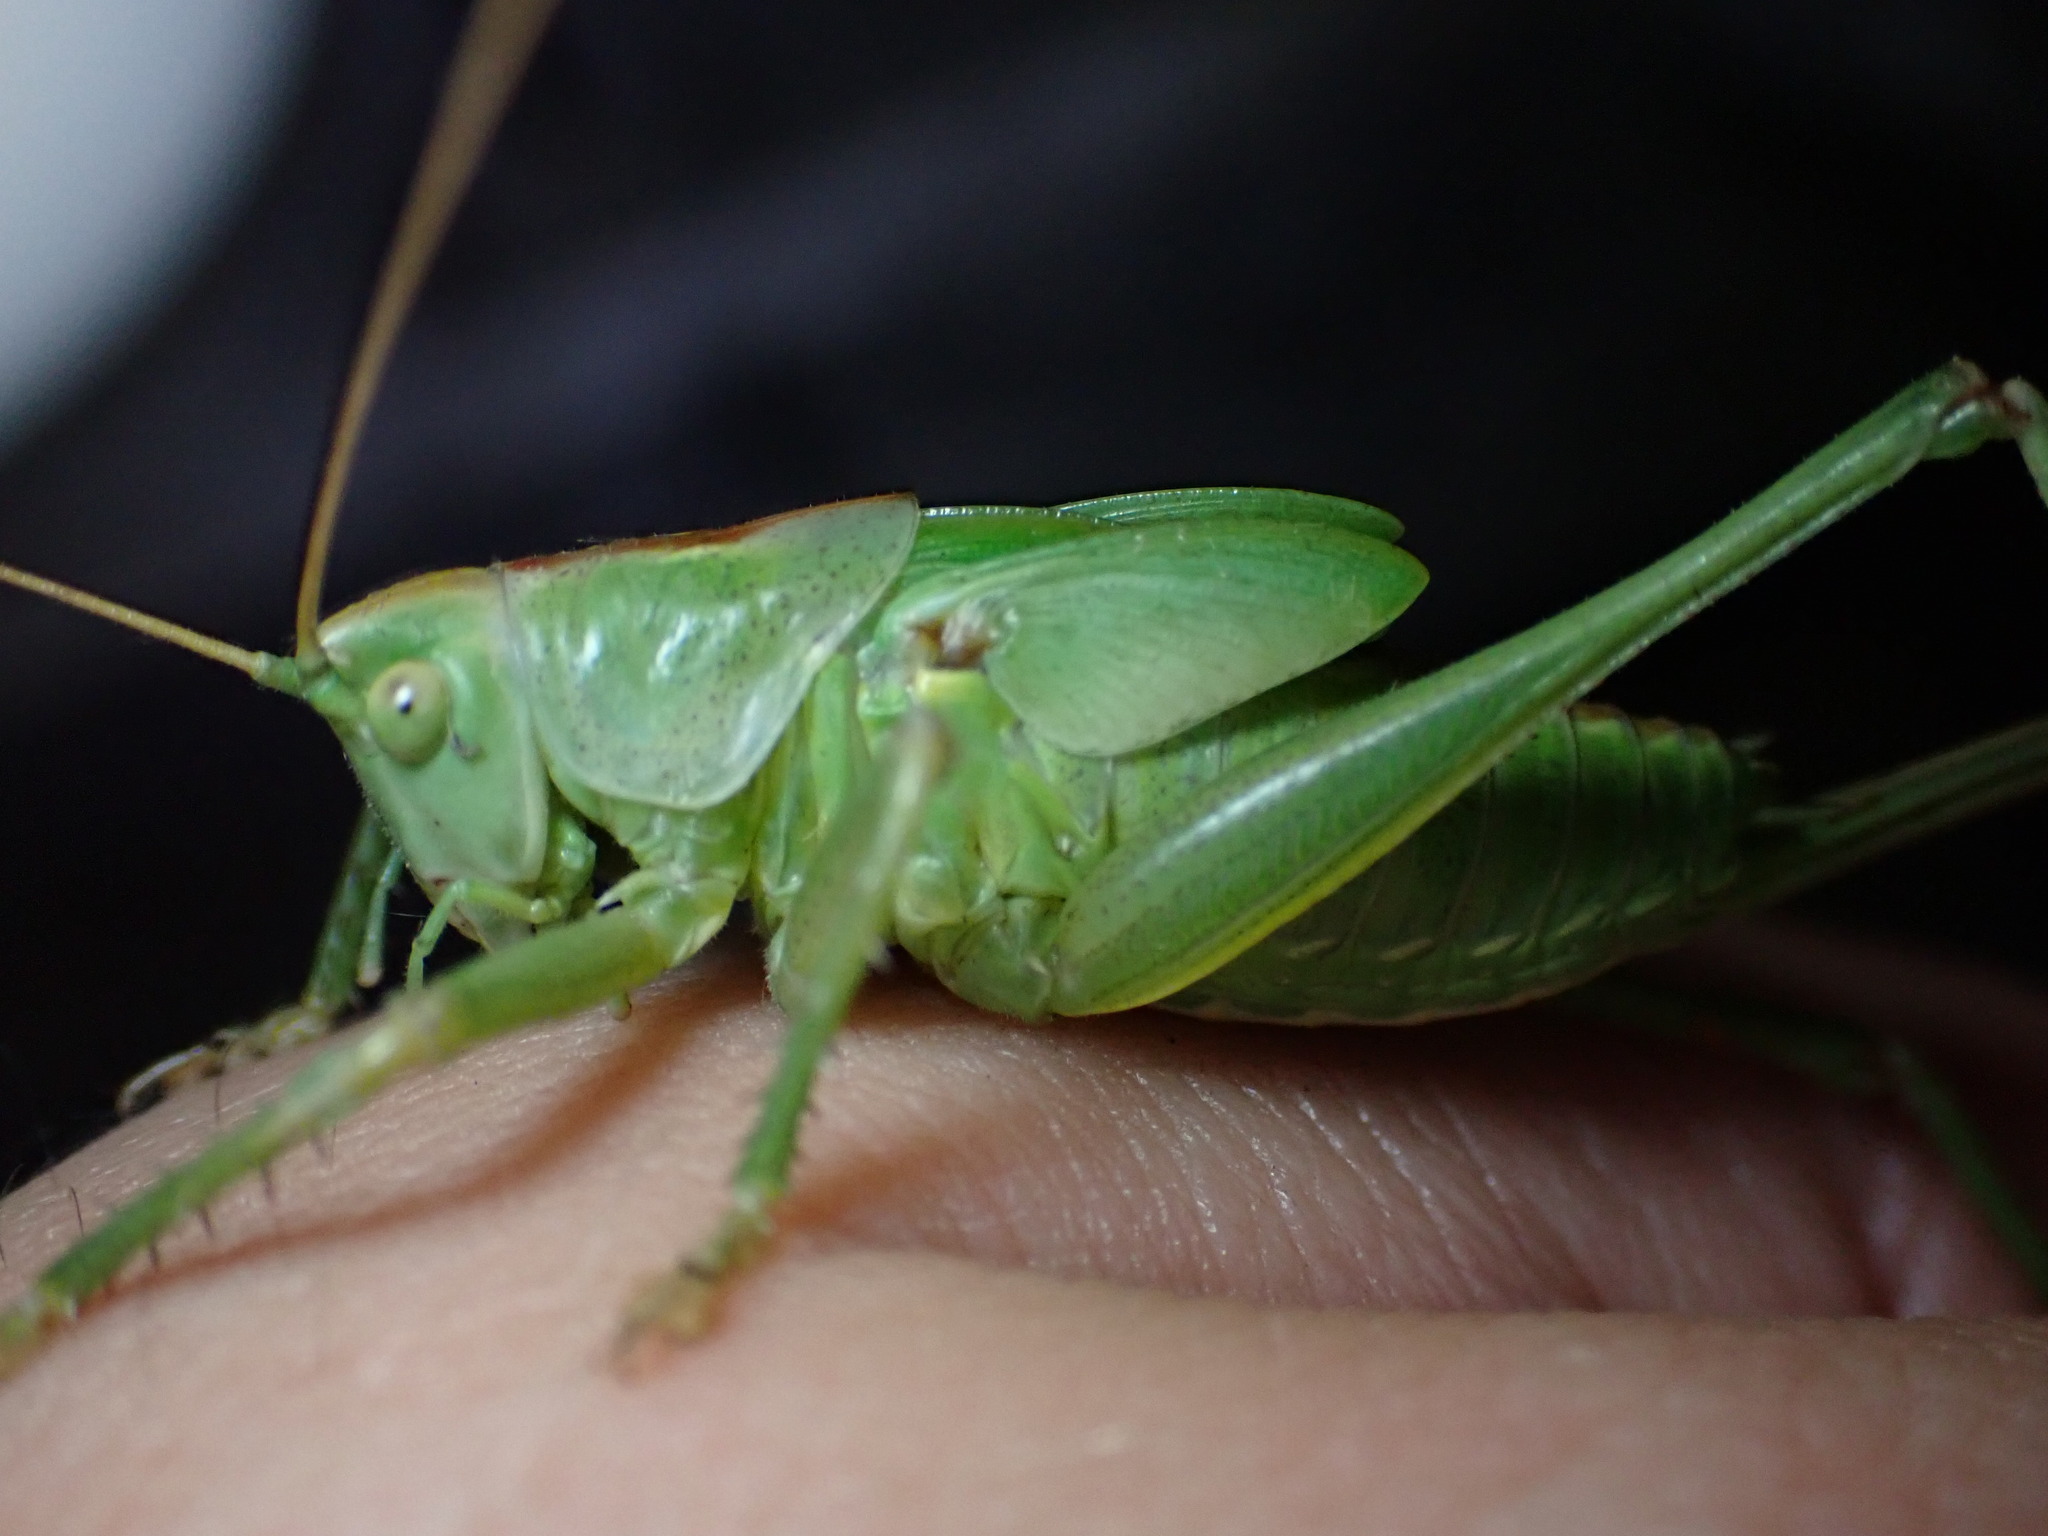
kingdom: Animalia
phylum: Arthropoda
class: Insecta
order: Orthoptera
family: Tettigoniidae
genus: Tettigonia
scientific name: Tettigonia viridissima
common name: Great green bush-cricket
